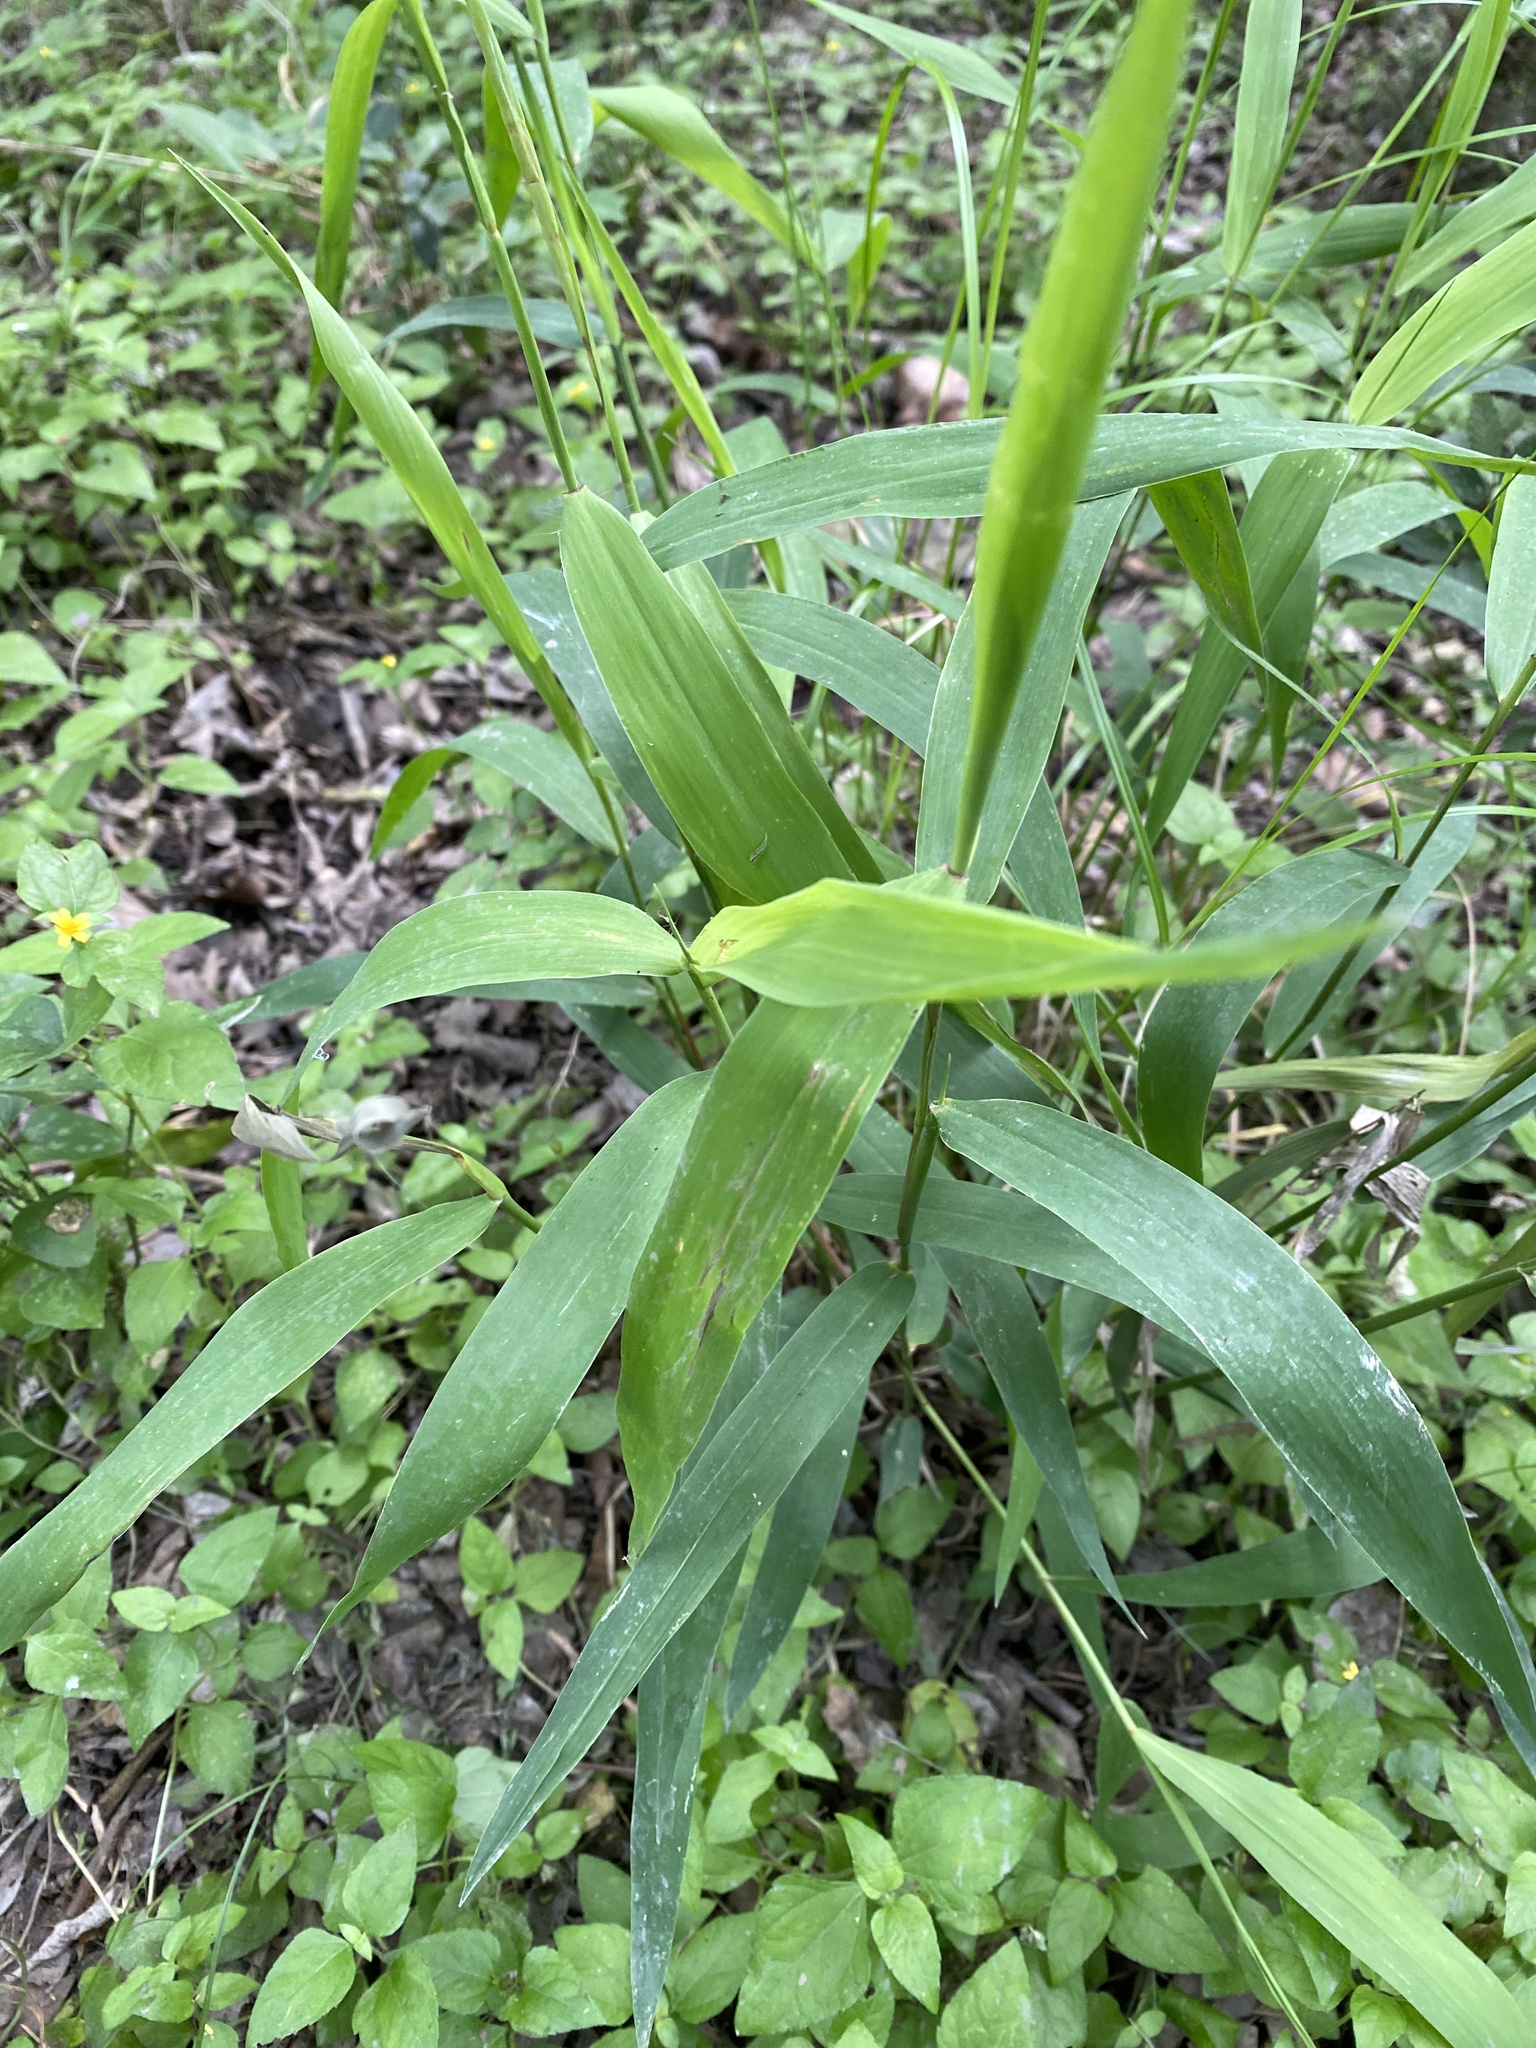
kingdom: Plantae
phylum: Tracheophyta
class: Liliopsida
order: Poales
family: Poaceae
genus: Chasmanthium
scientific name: Chasmanthium latifolium
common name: Broad-leaved chasmanthium
